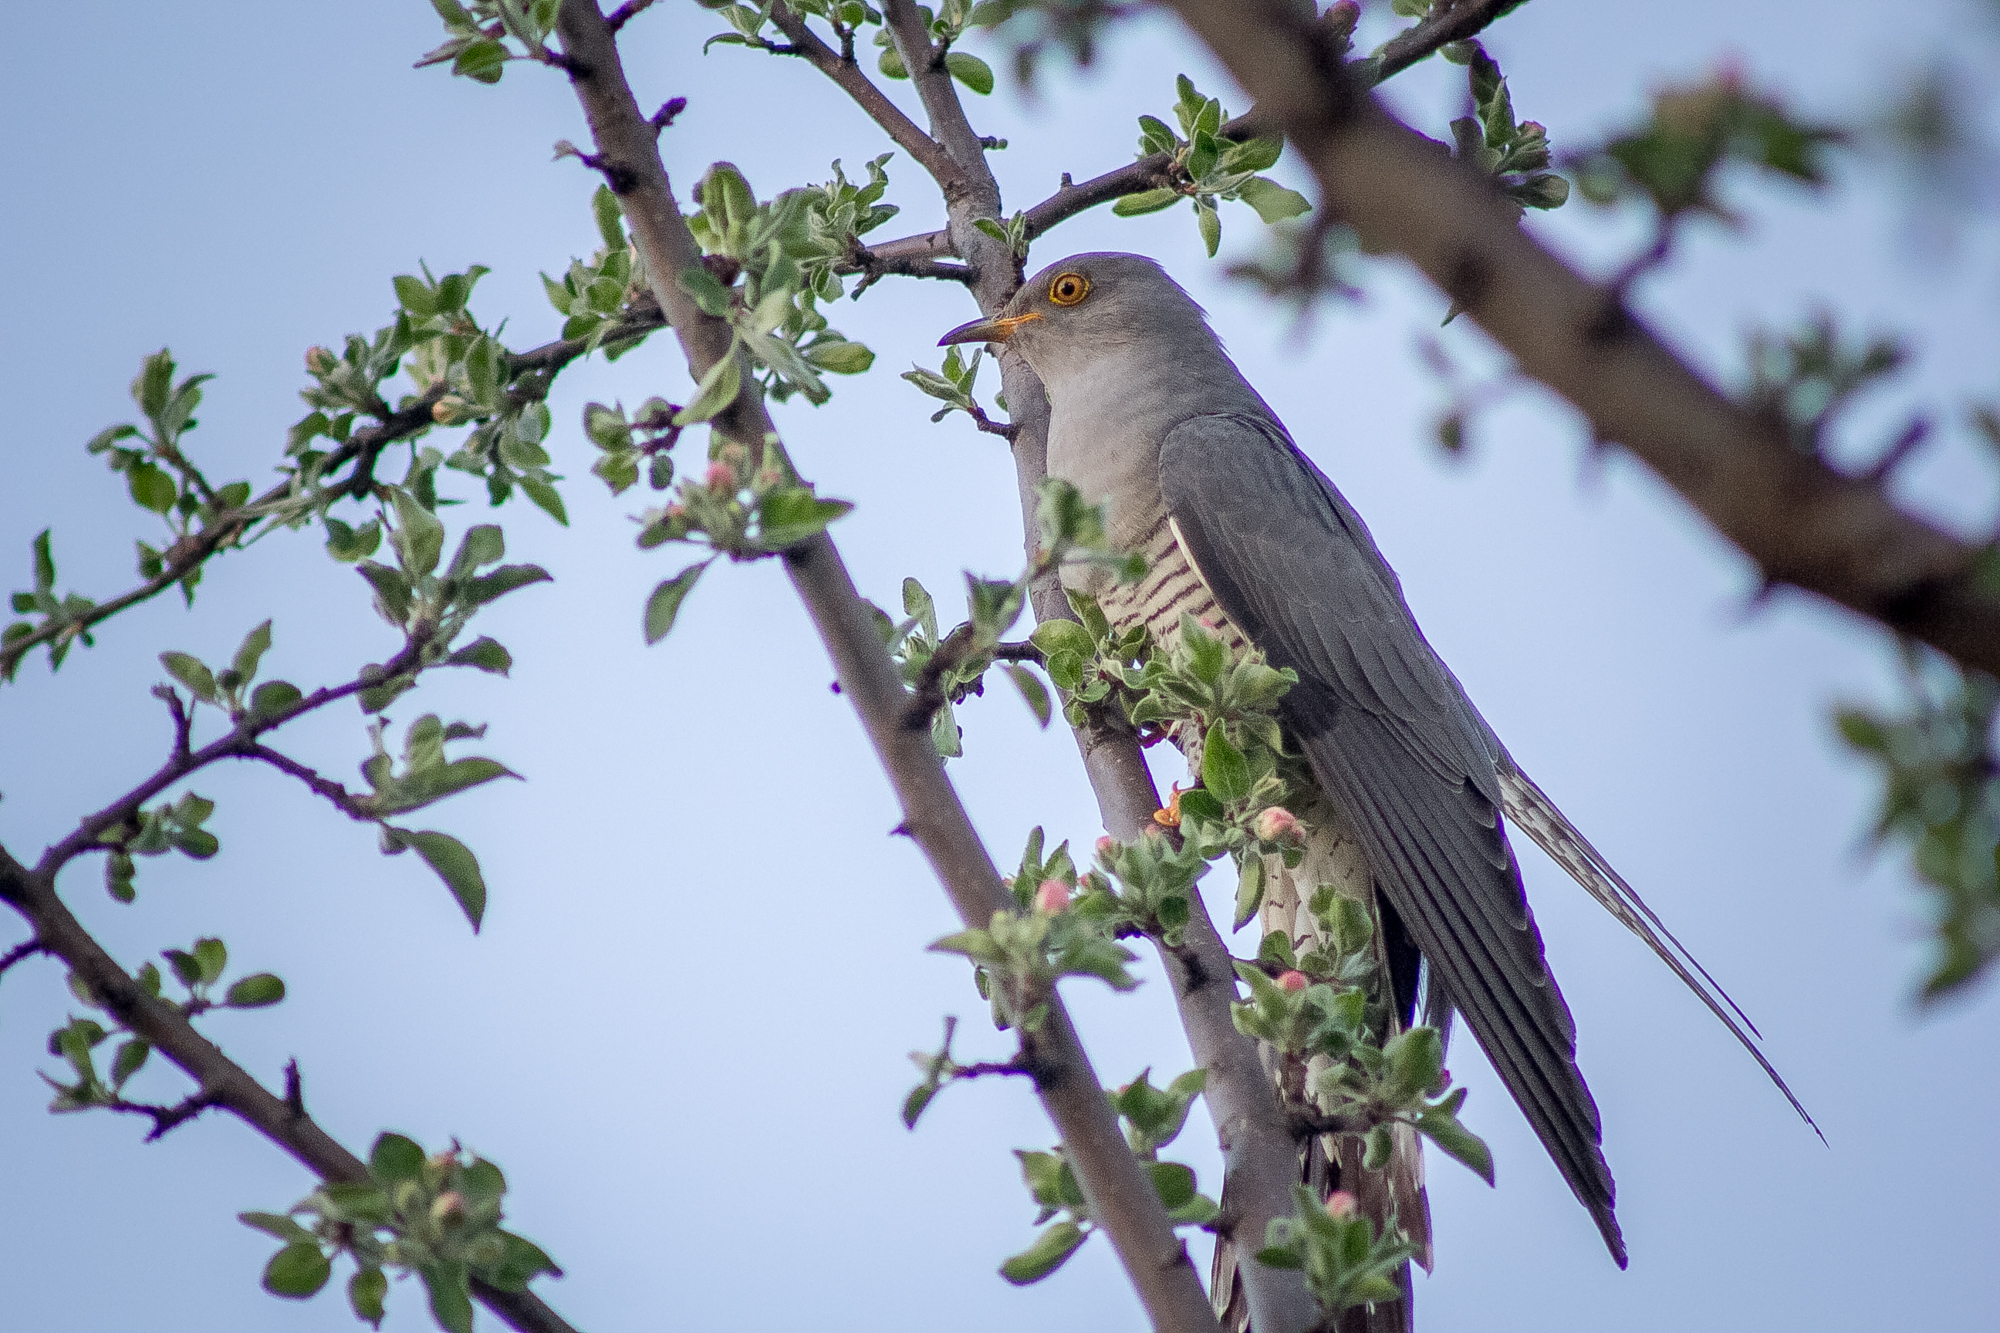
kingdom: Animalia
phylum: Chordata
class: Aves
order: Cuculiformes
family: Cuculidae
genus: Cuculus
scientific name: Cuculus canorus
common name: Common cuckoo
